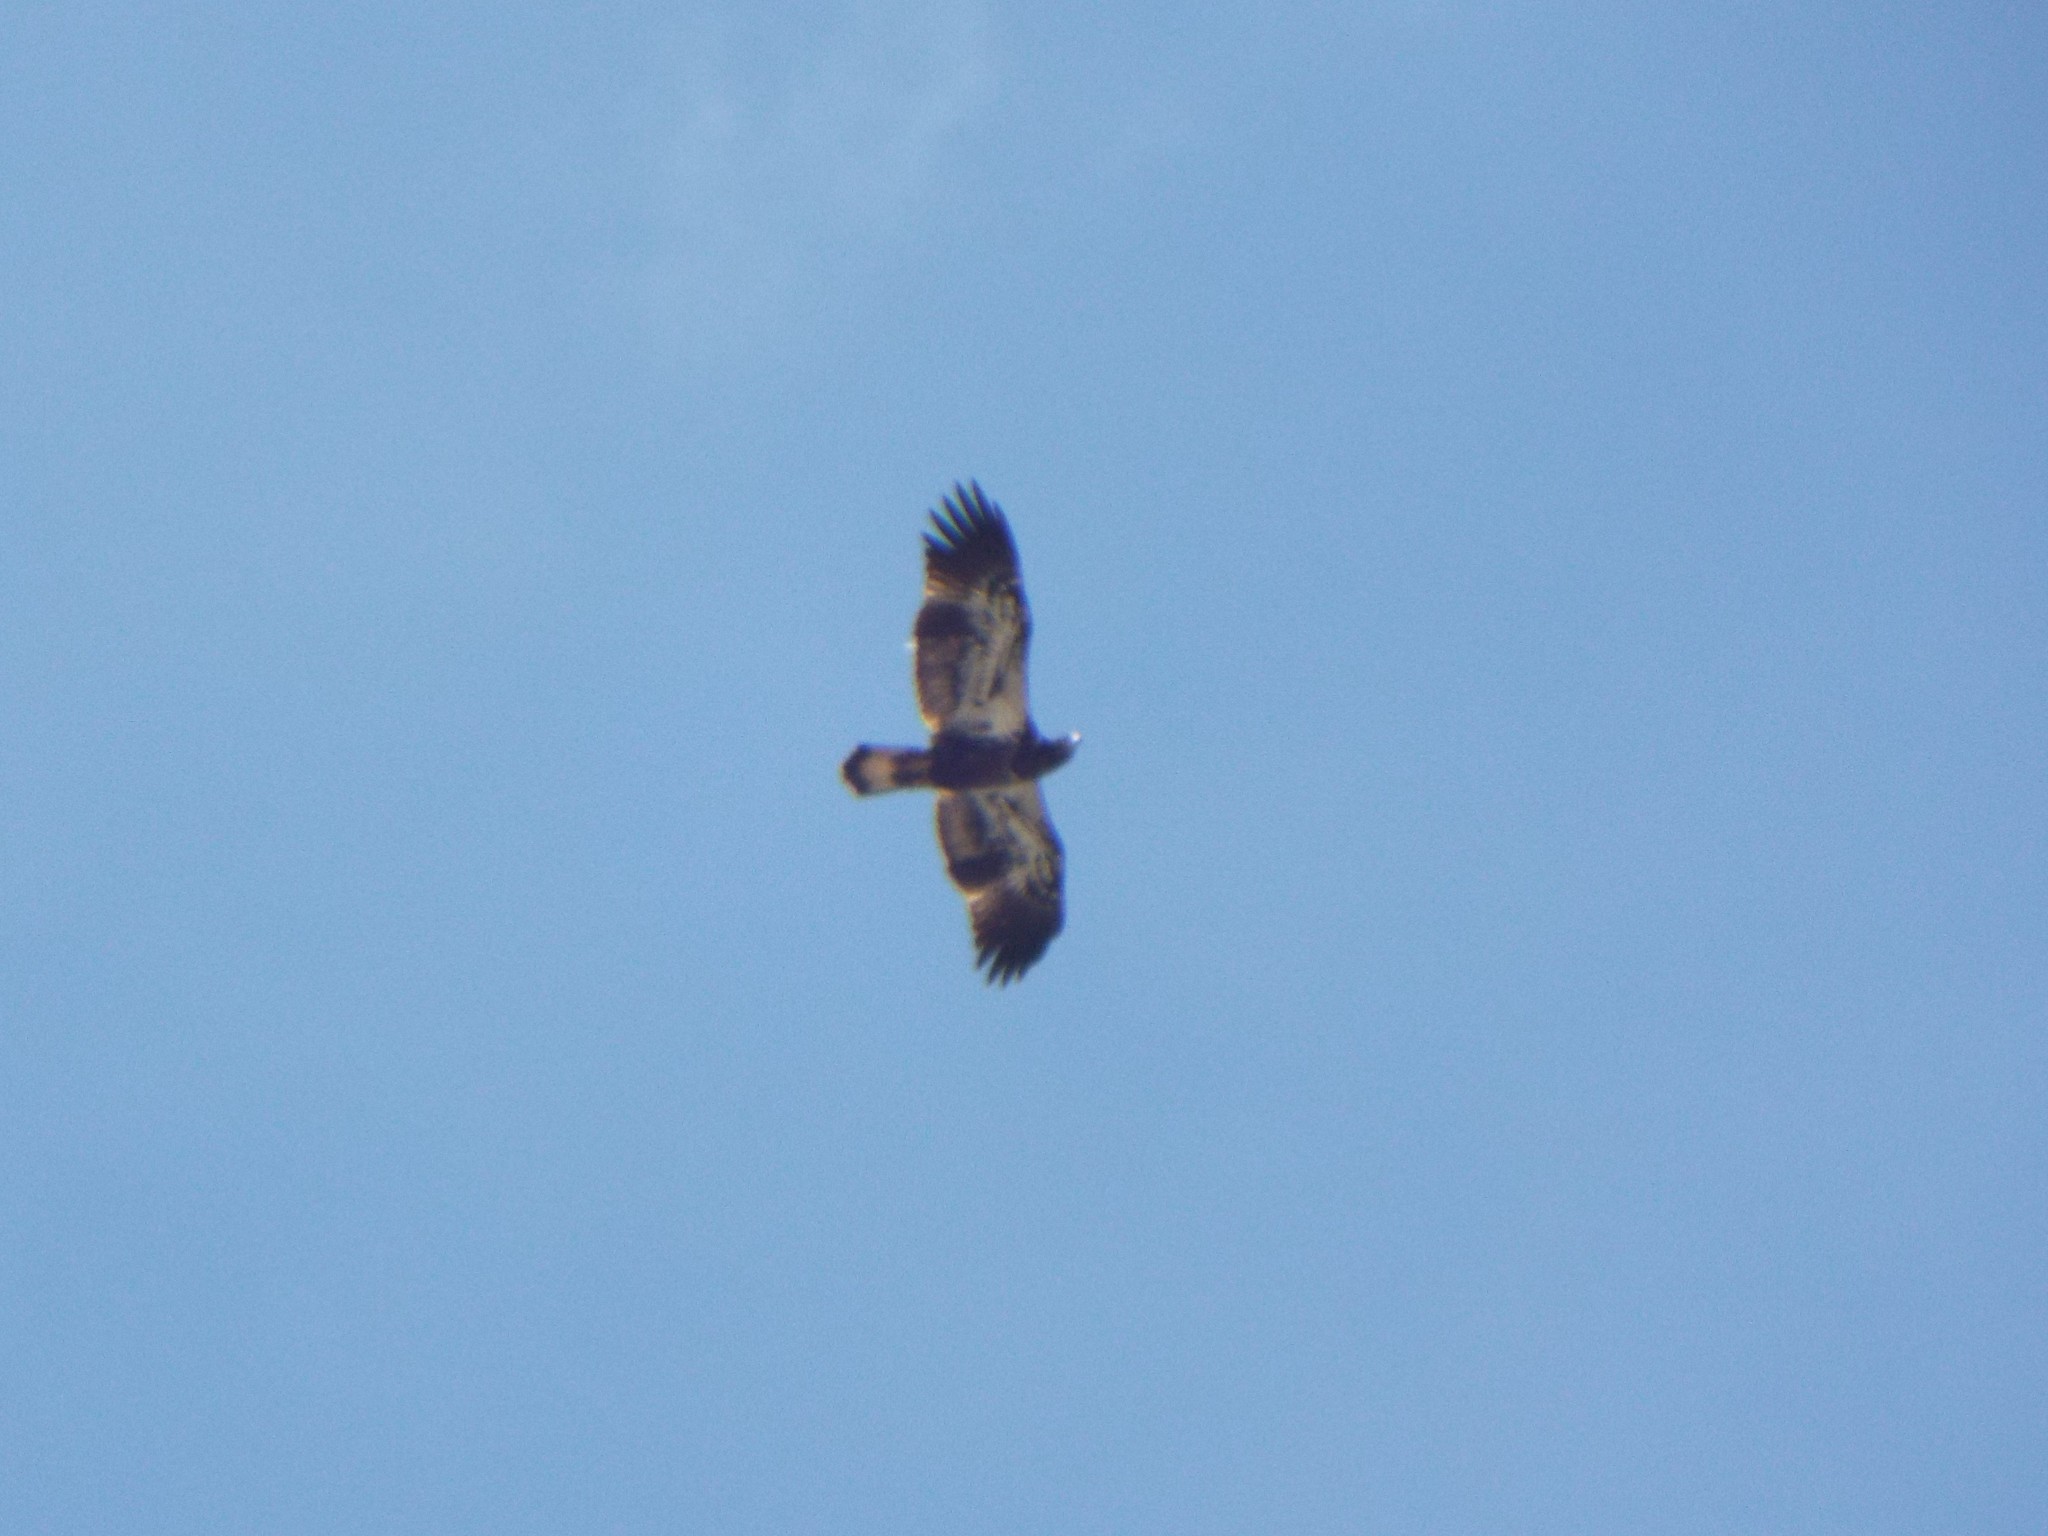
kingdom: Animalia
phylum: Chordata
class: Aves
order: Accipitriformes
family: Accipitridae
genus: Haliaeetus
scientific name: Haliaeetus leucocephalus
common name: Bald eagle
